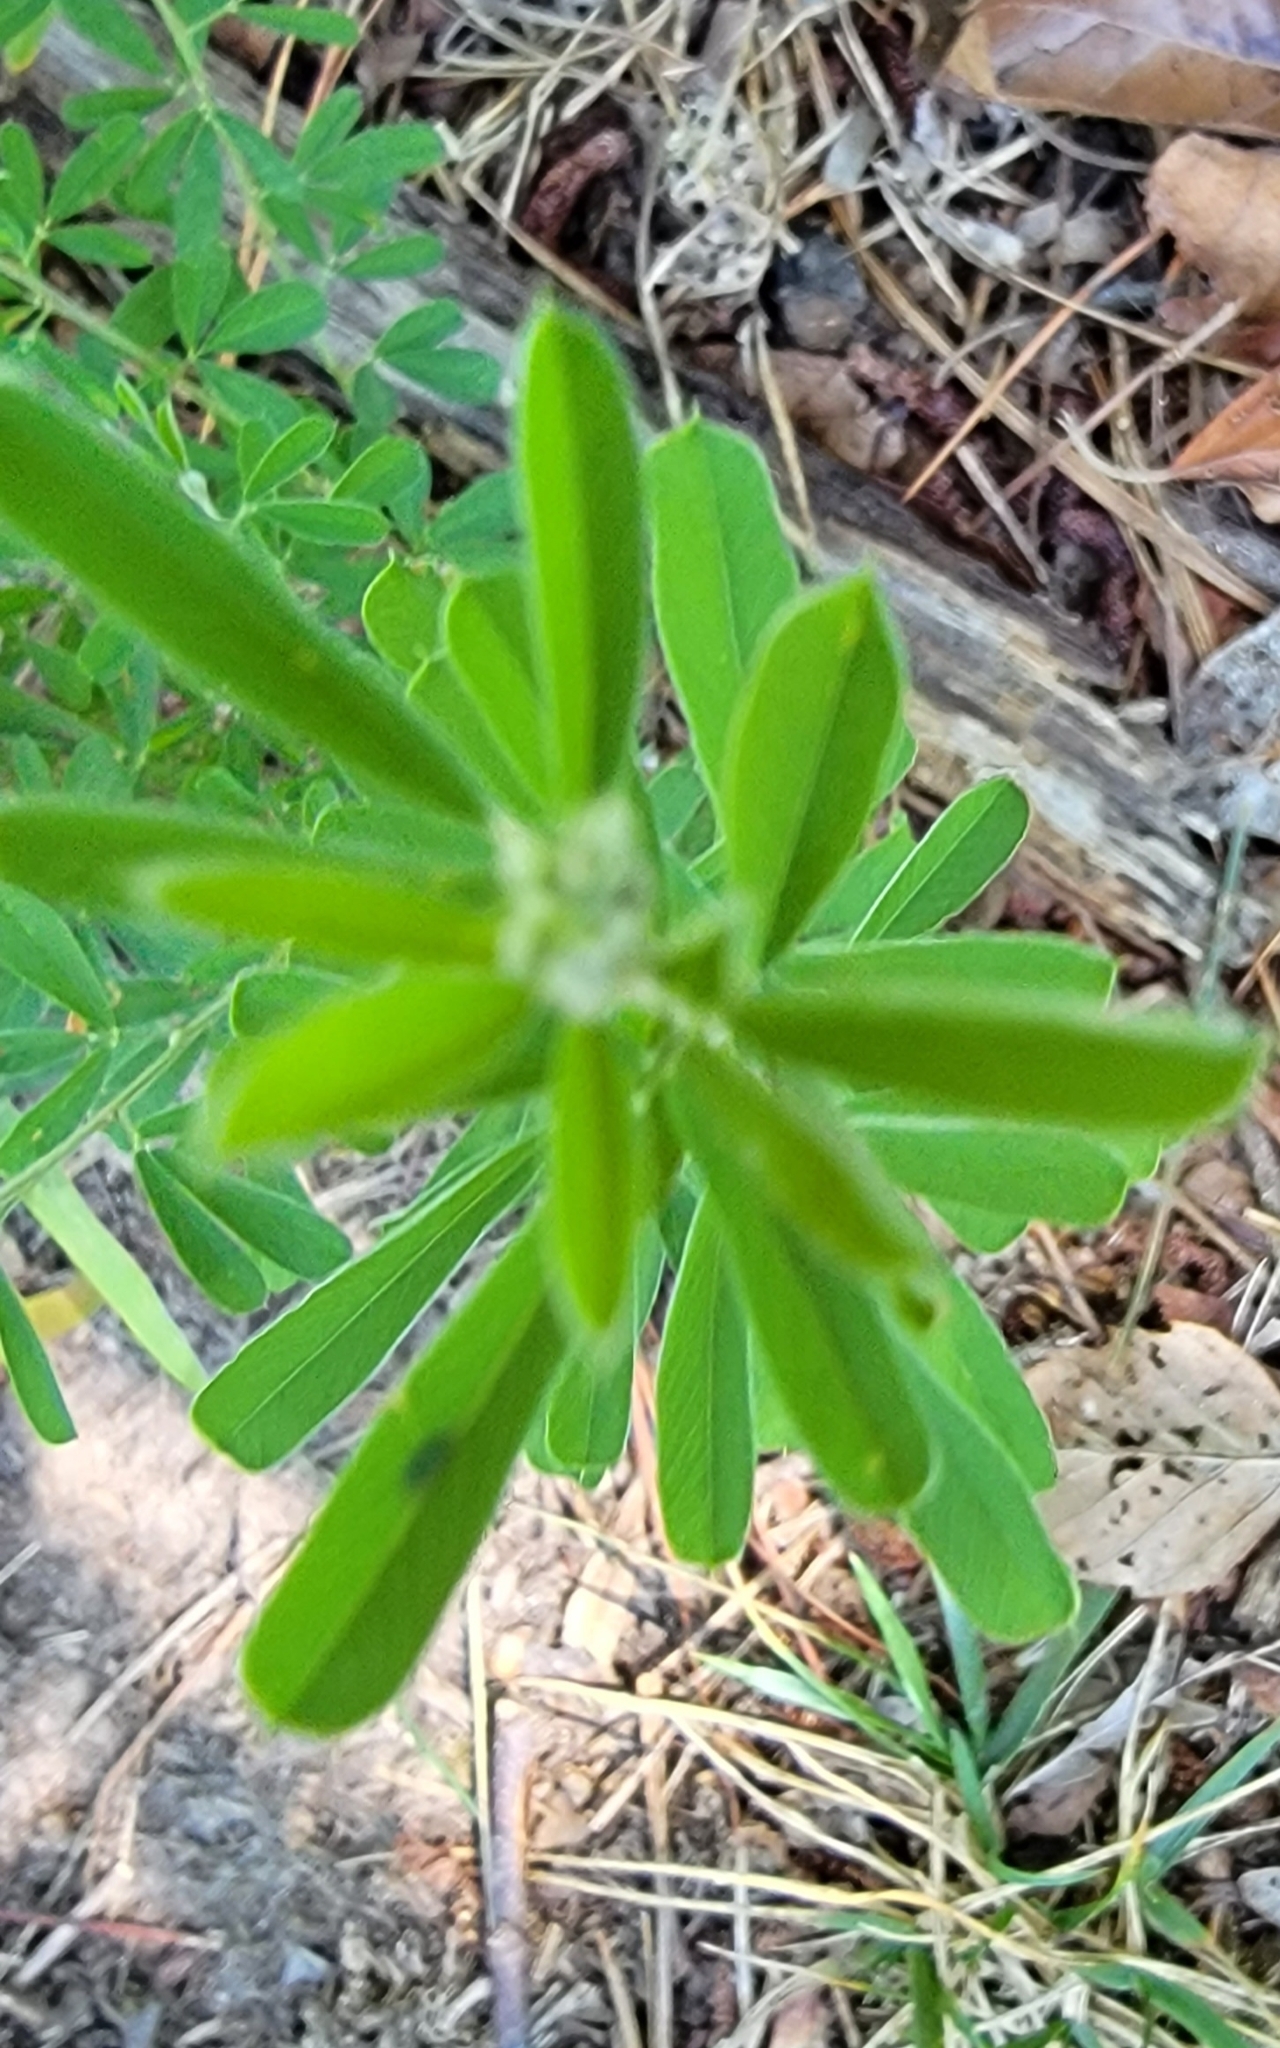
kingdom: Plantae
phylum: Tracheophyta
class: Magnoliopsida
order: Fabales
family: Fabaceae
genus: Lespedeza
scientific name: Lespedeza cuneata
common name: Chinese bush-clover
